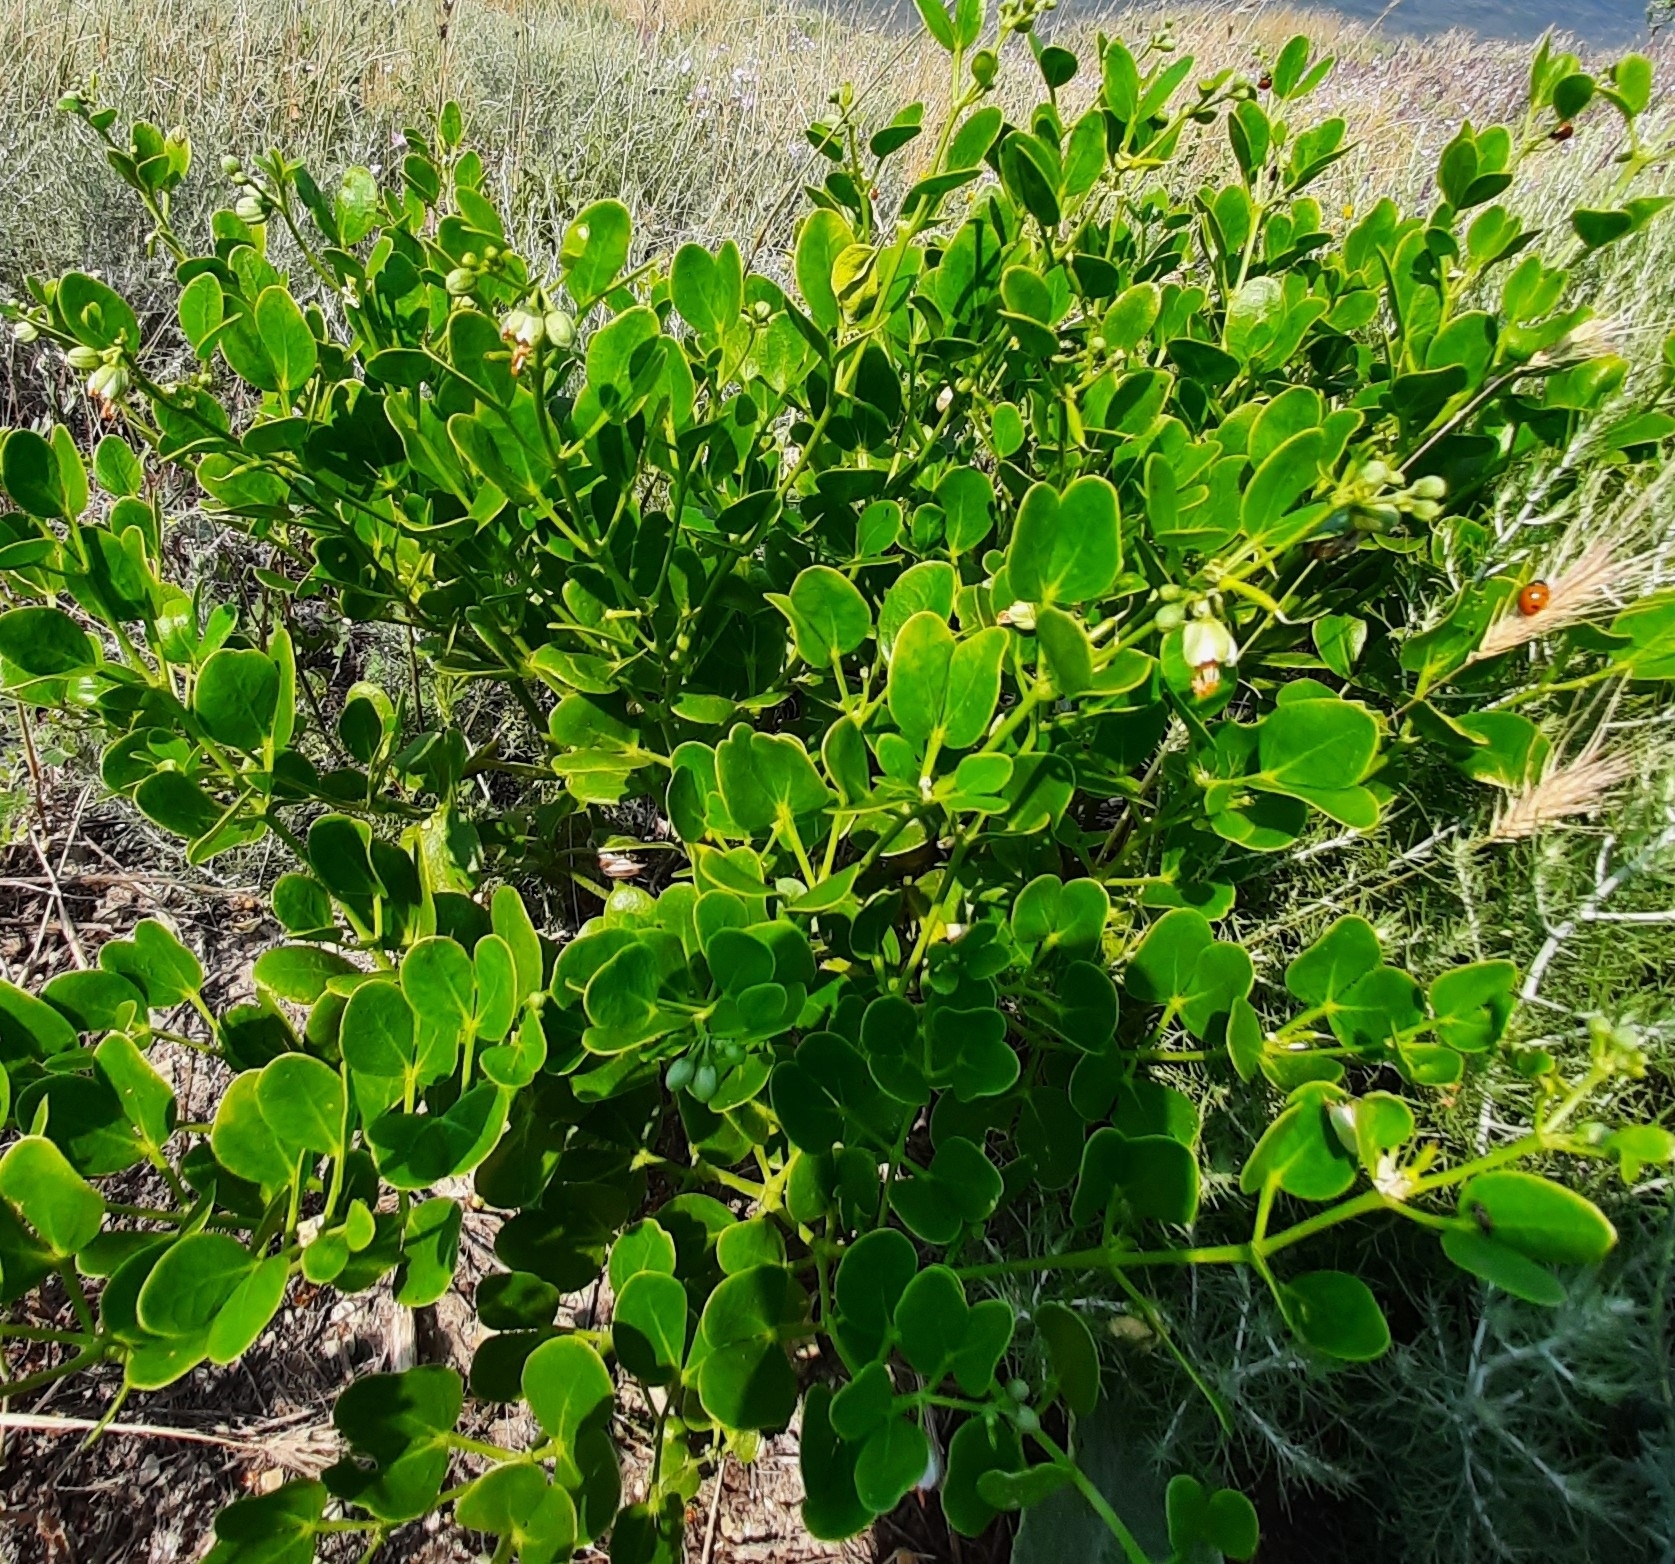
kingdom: Plantae
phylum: Tracheophyta
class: Magnoliopsida
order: Zygophyllales
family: Zygophyllaceae
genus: Zygophyllum
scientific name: Zygophyllum fabago
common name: Syrian beancaper
